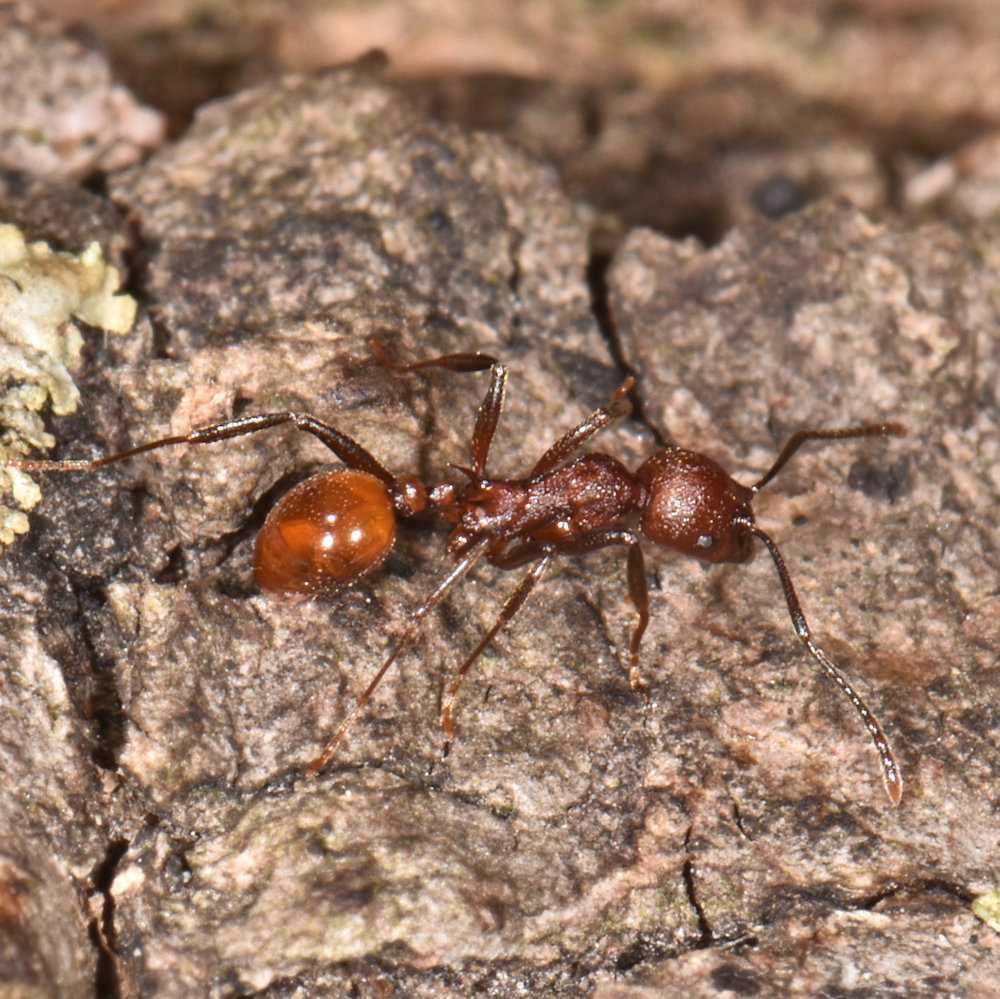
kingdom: Animalia
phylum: Arthropoda
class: Insecta
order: Hymenoptera
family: Formicidae
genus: Aphaenogaster
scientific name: Aphaenogaster tennesseensis
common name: Tennessee thread-waisted ant
